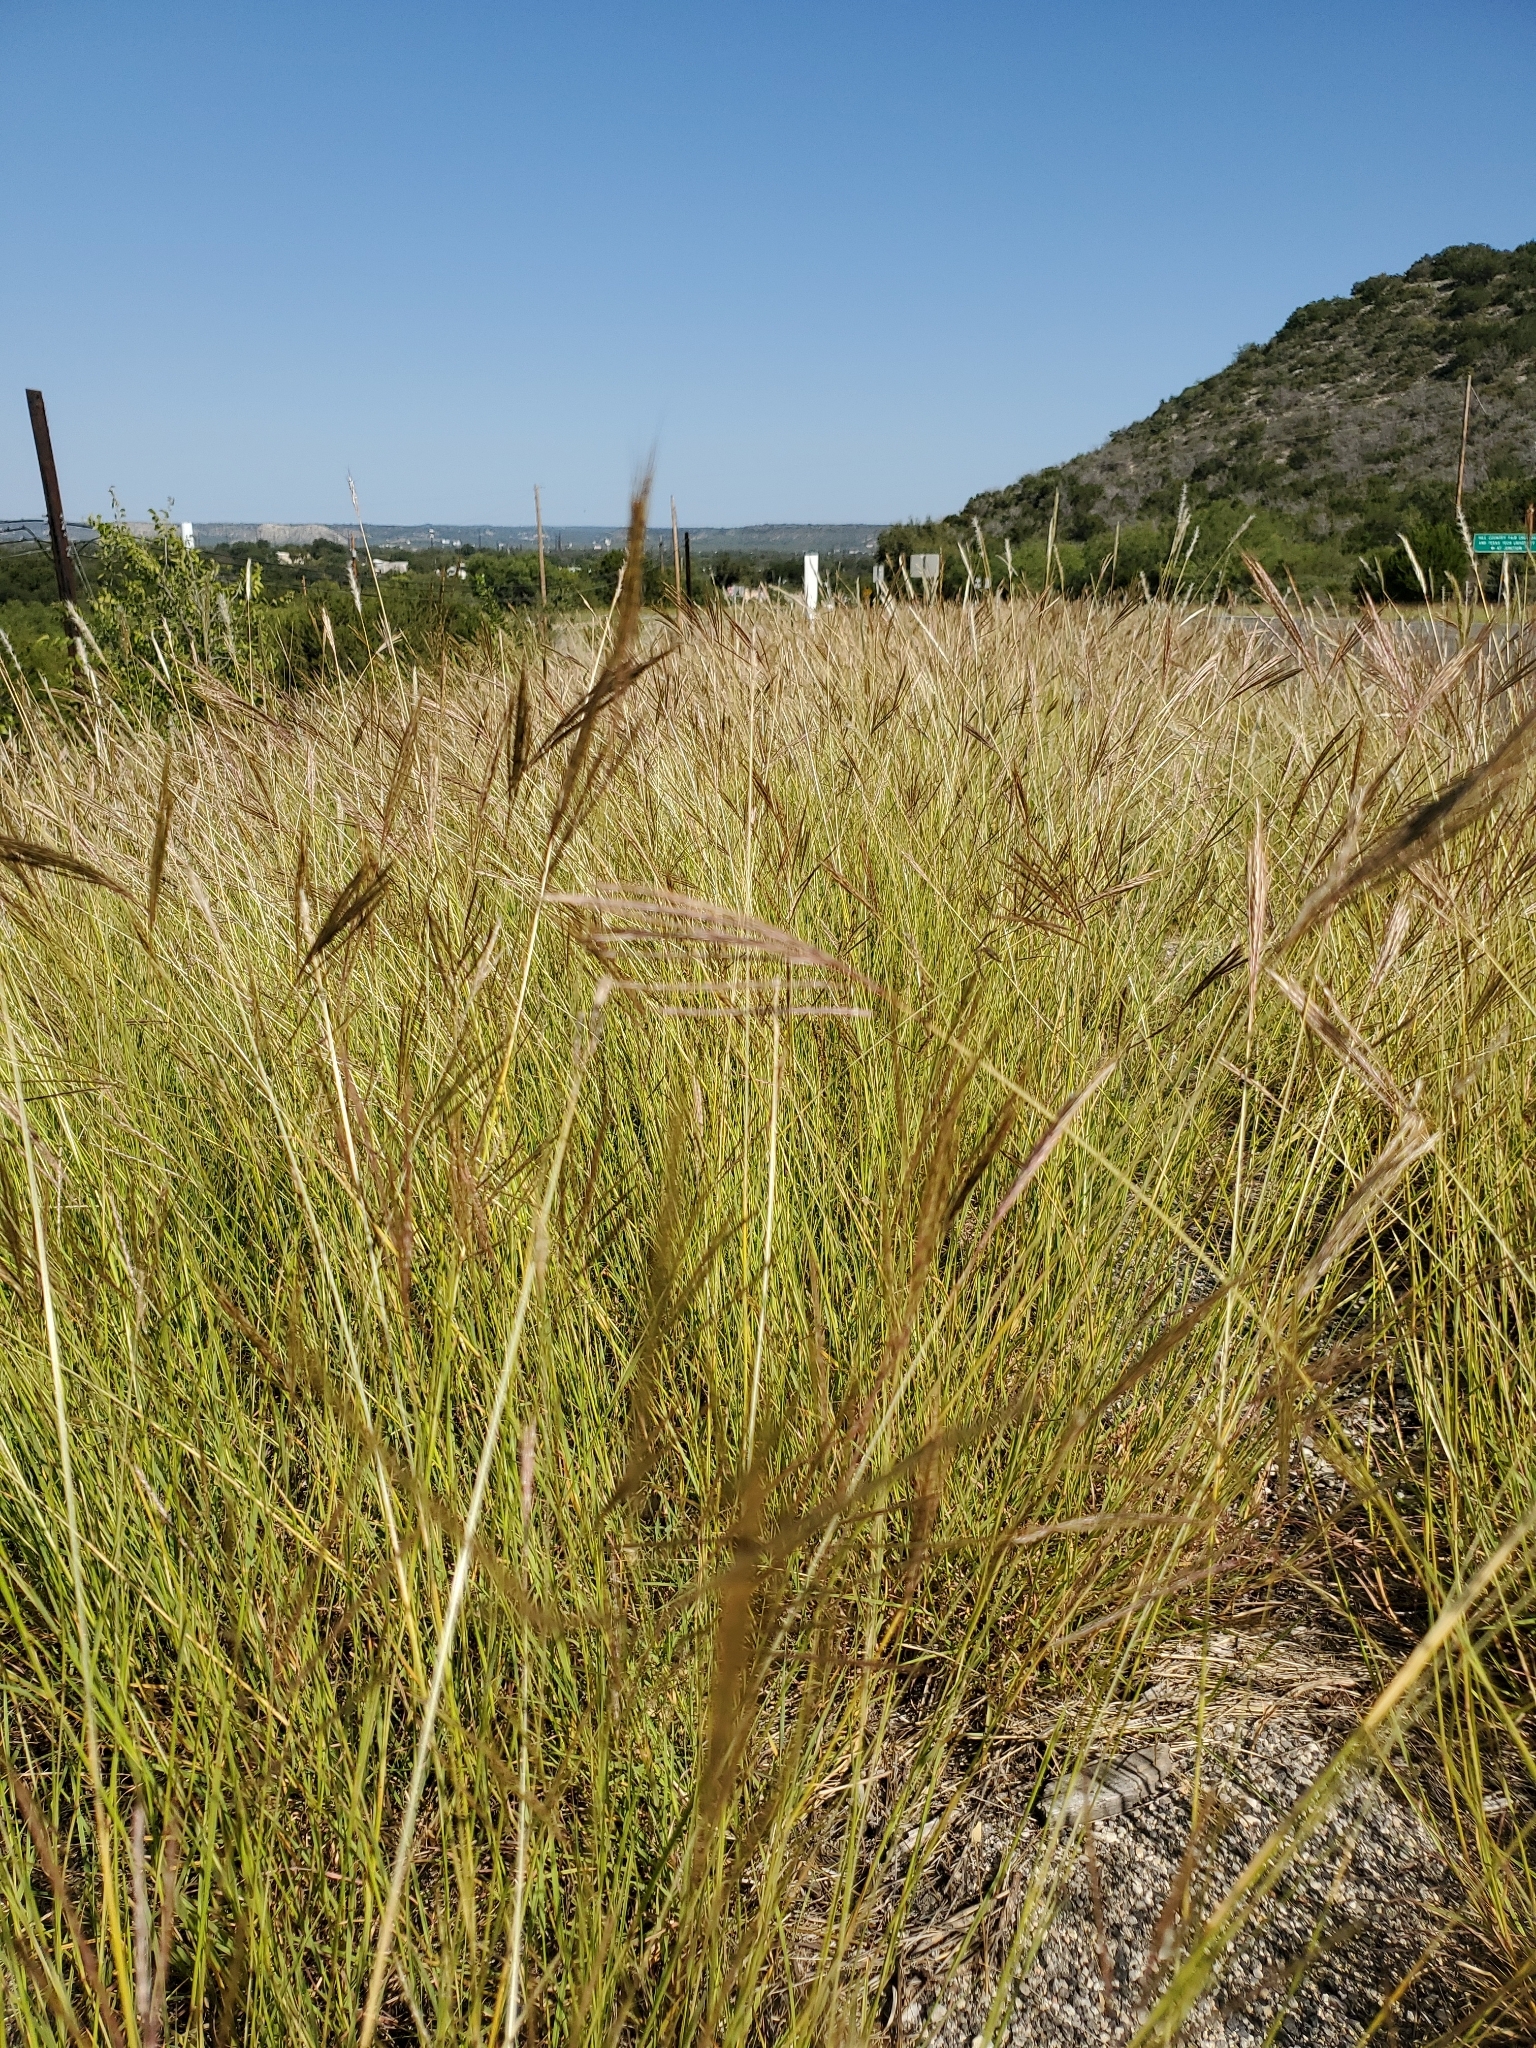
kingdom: Plantae
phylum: Tracheophyta
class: Liliopsida
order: Poales
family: Poaceae
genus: Bothriochloa
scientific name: Bothriochloa ischaemum
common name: Yellow bluestem
